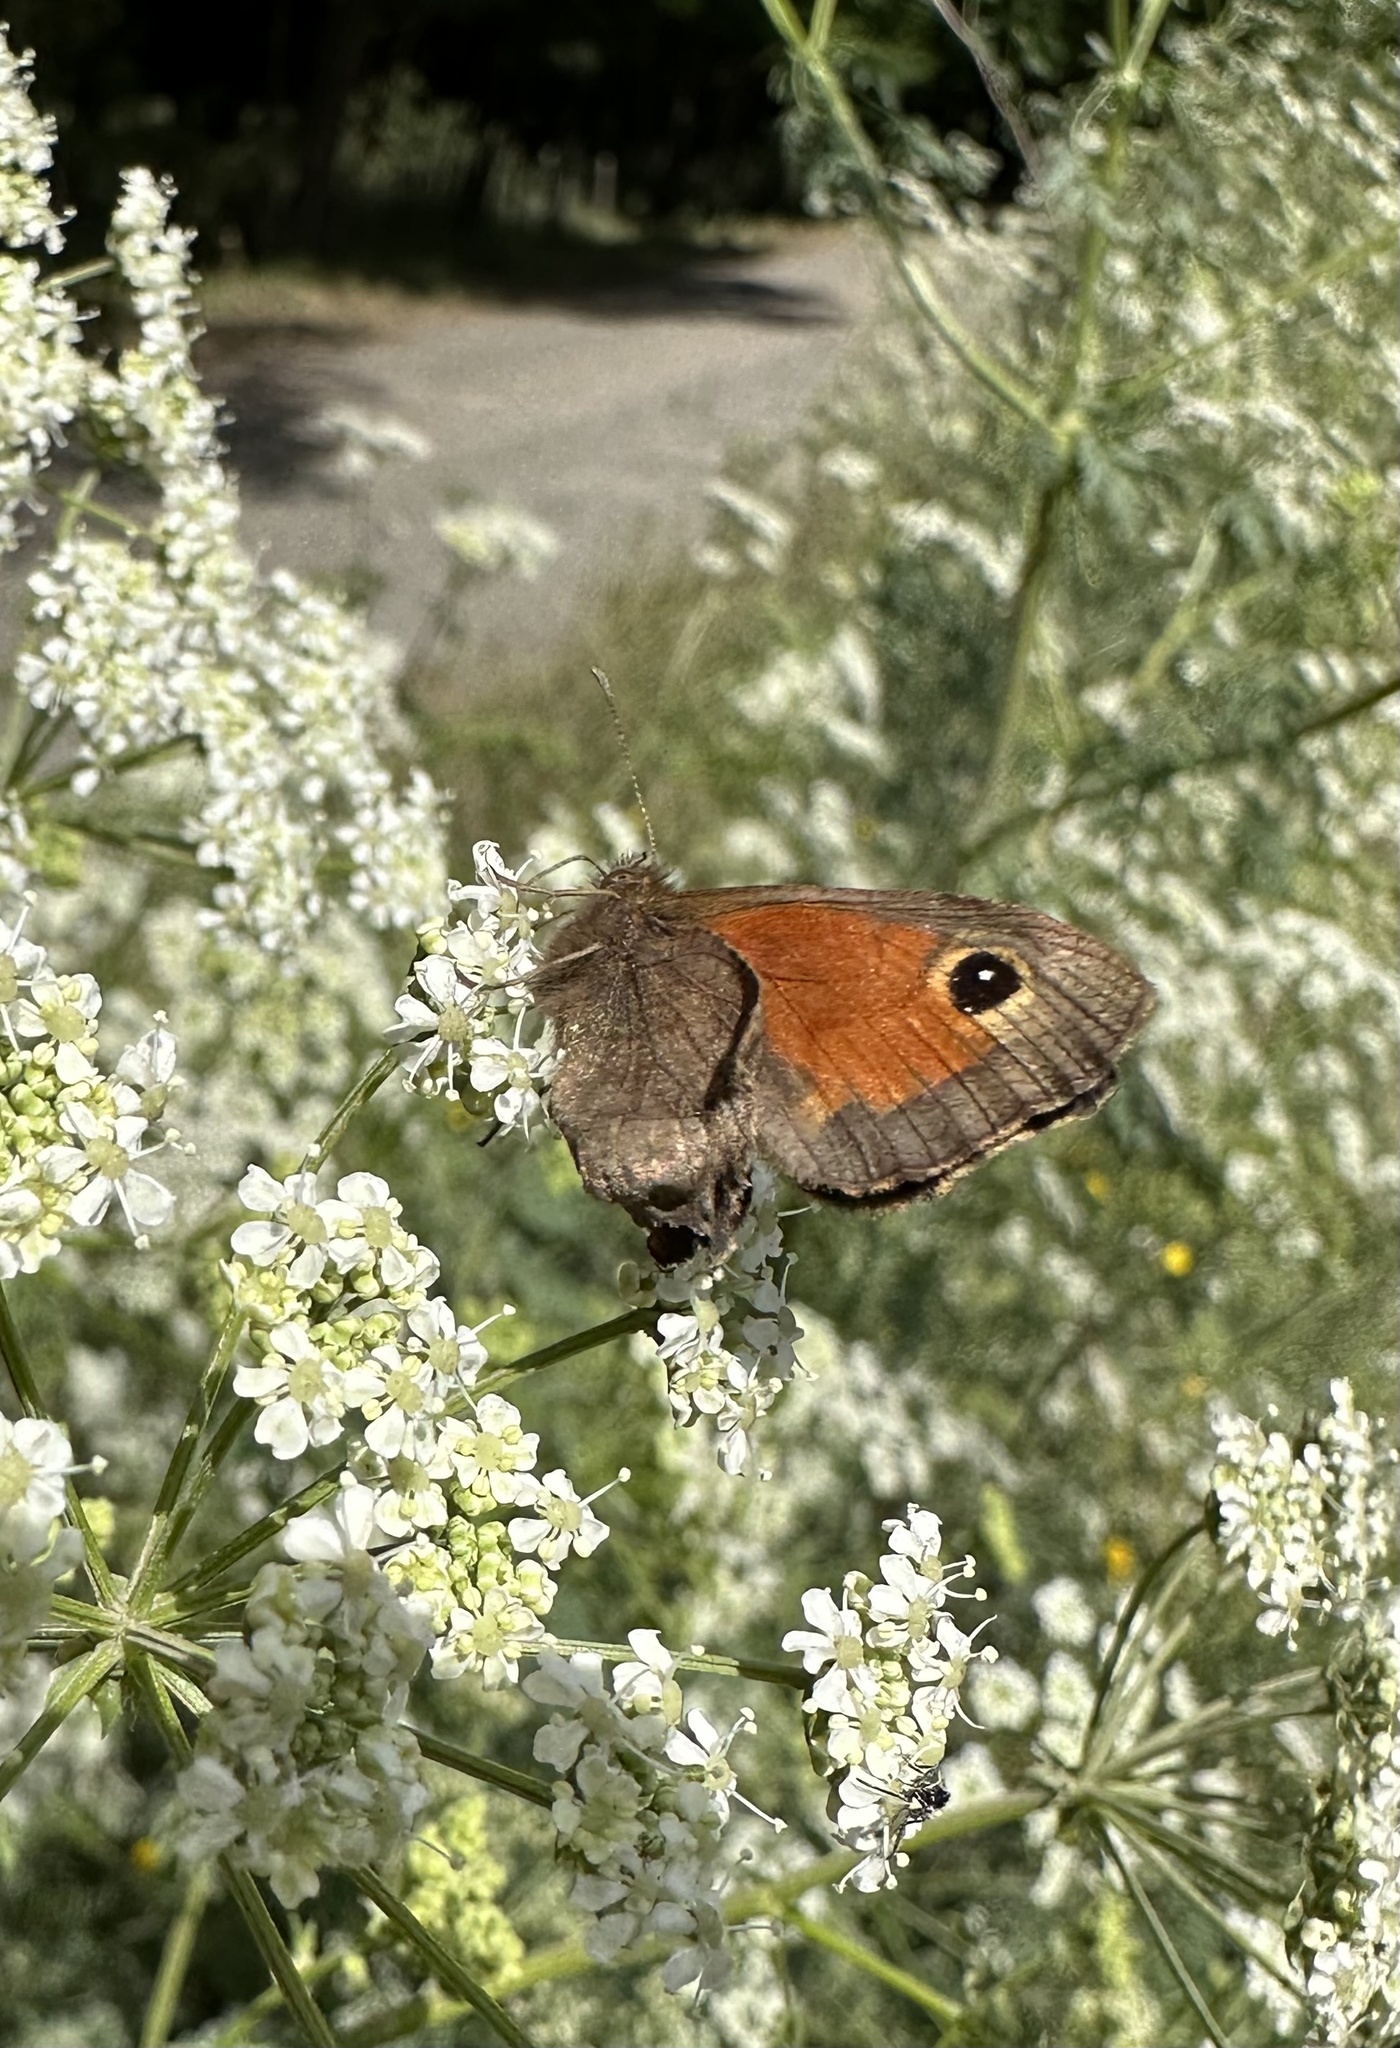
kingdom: Animalia
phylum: Arthropoda
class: Insecta
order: Lepidoptera
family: Nymphalidae
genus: Auca
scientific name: Auca coctei
